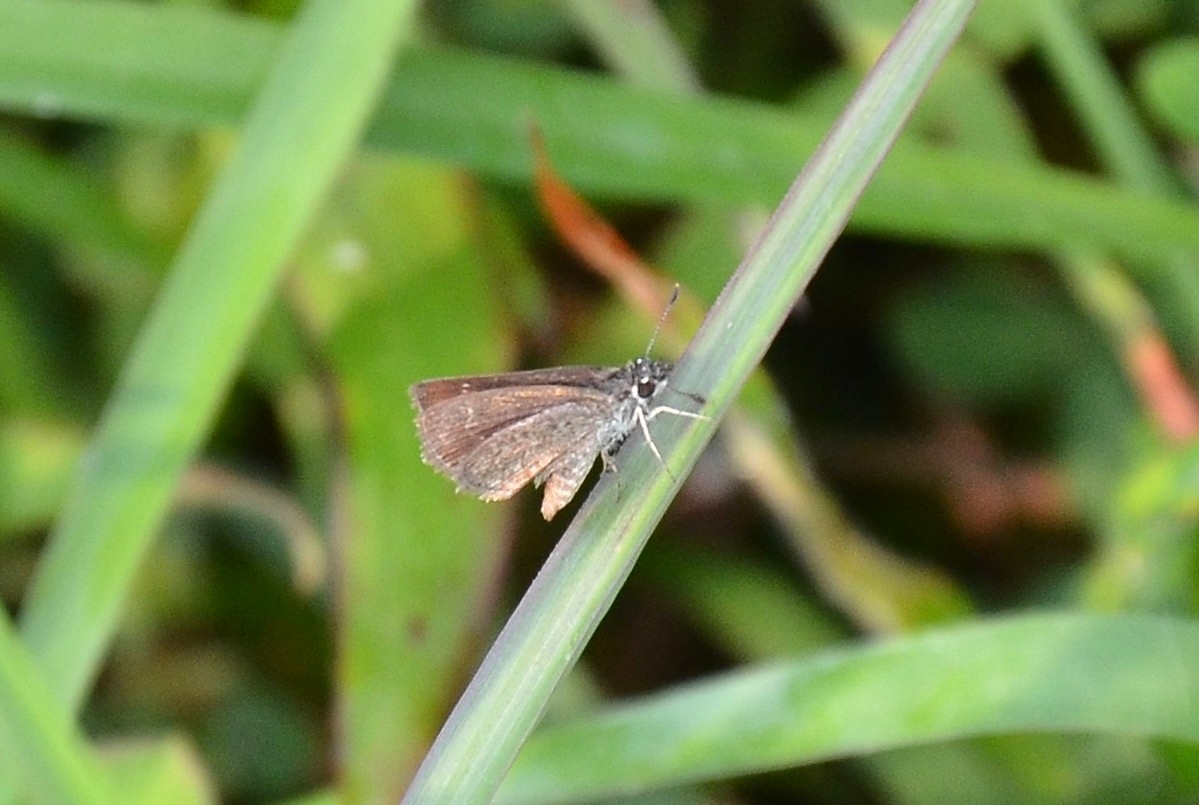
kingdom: Animalia
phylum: Arthropoda
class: Insecta
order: Lepidoptera
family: Hesperiidae
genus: Aeromachus
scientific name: Aeromachus pygmaeus
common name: Pygmy scrub hopper
